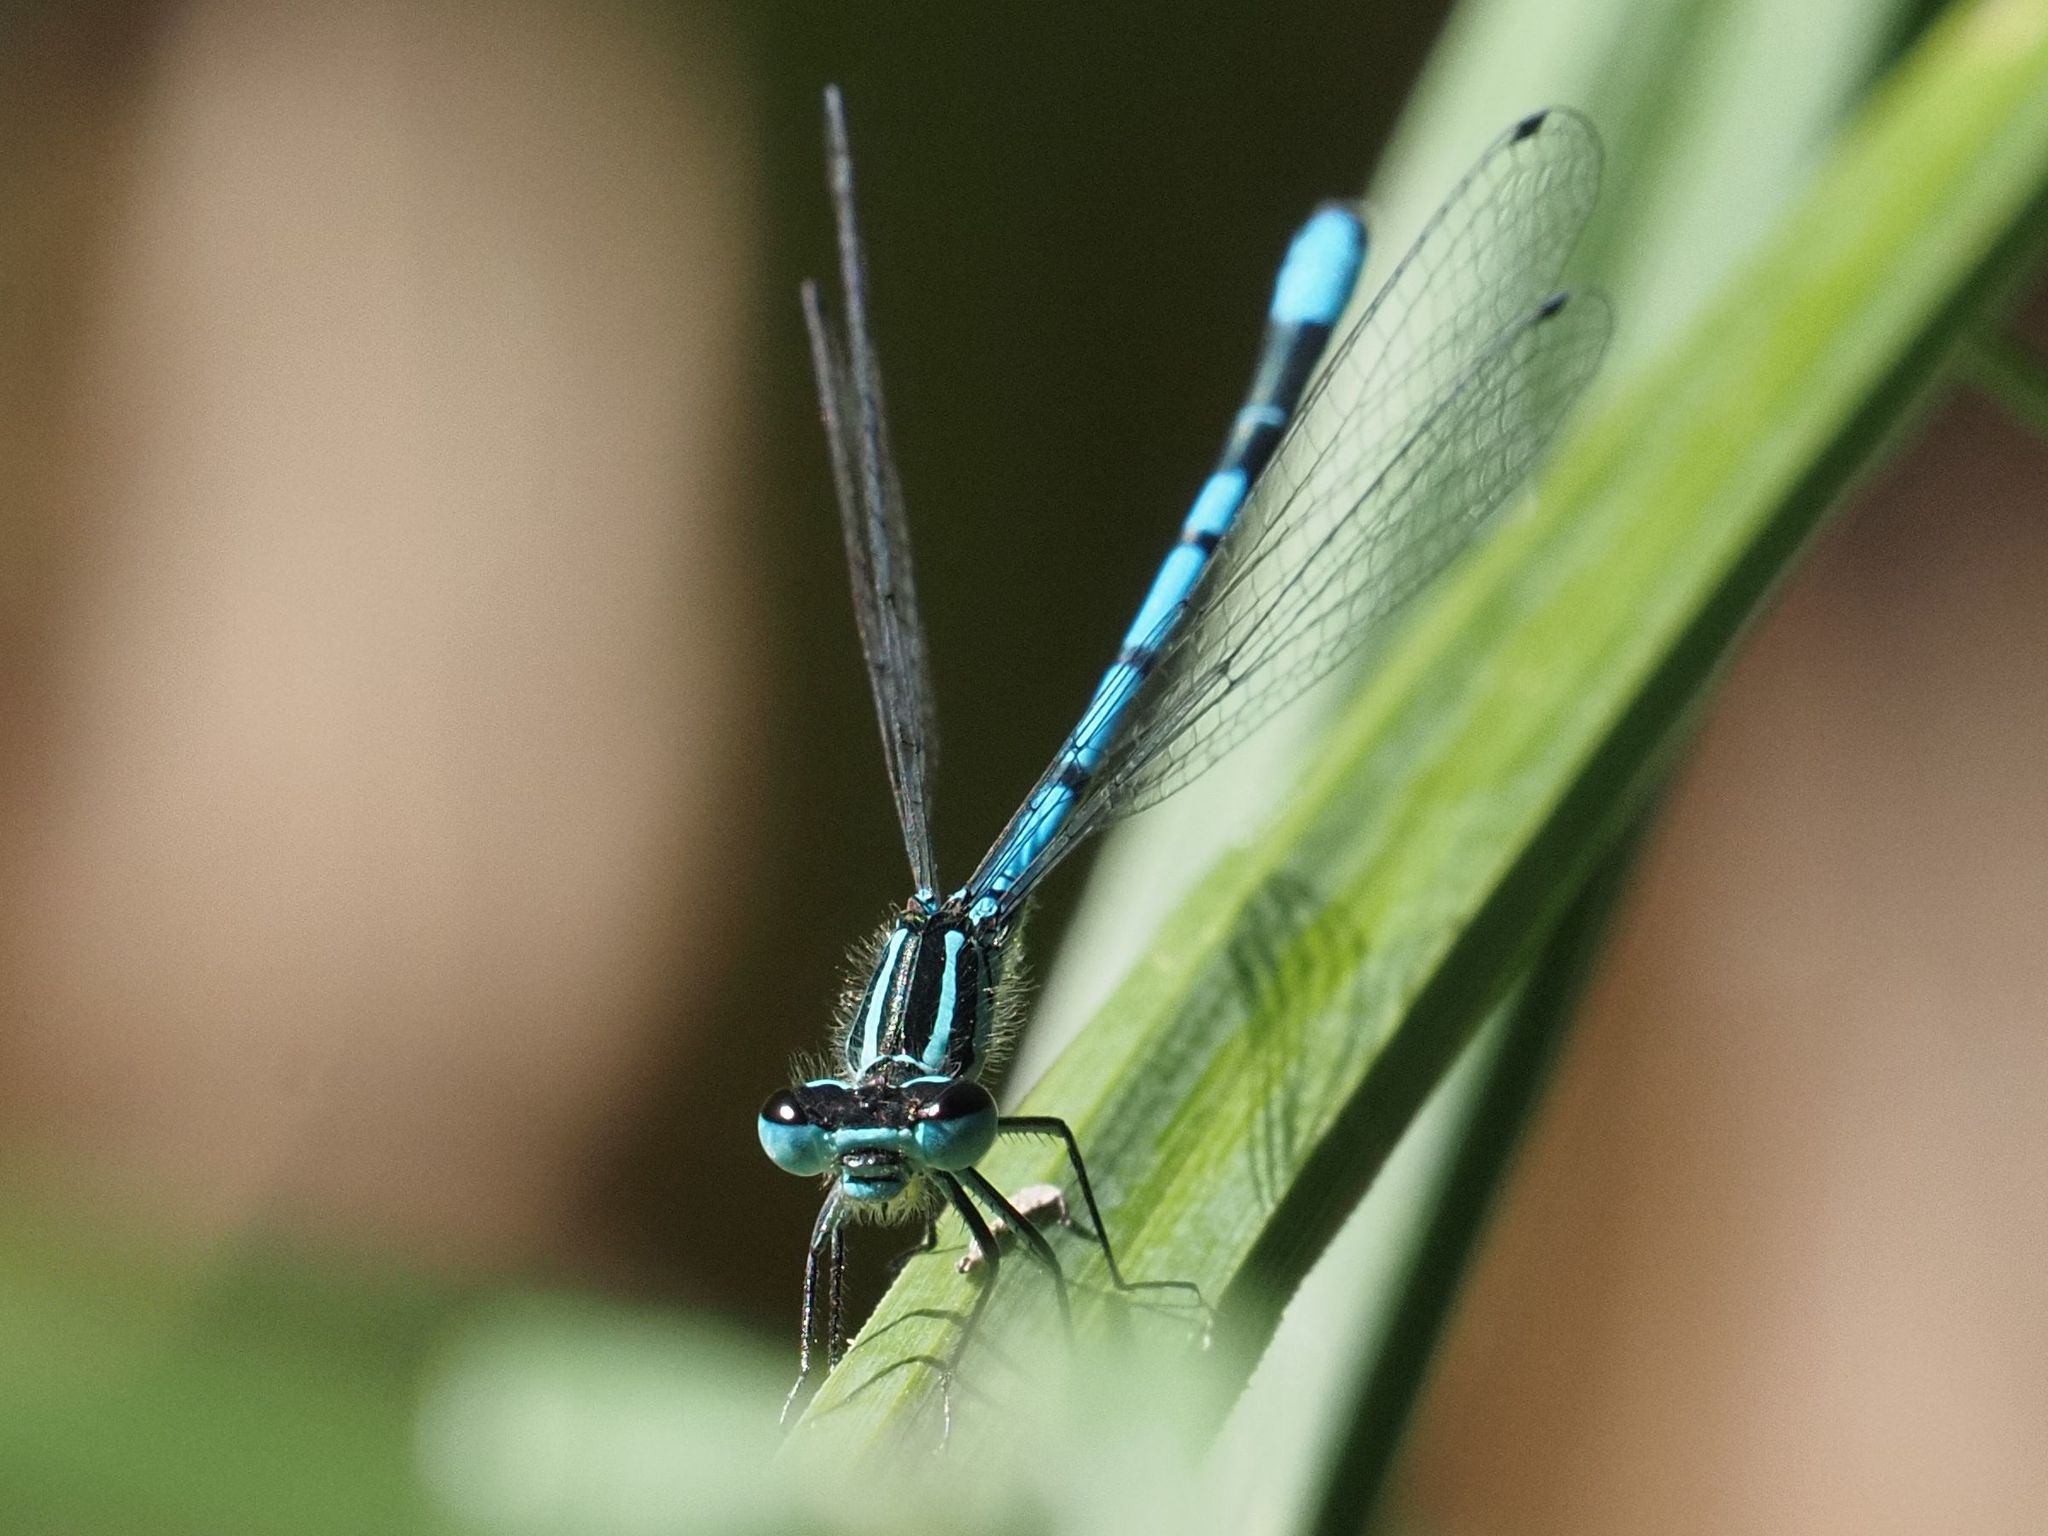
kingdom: Animalia
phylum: Arthropoda
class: Insecta
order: Odonata
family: Coenagrionidae
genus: Coenagrion
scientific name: Coenagrion puella
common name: Azure damselfly
